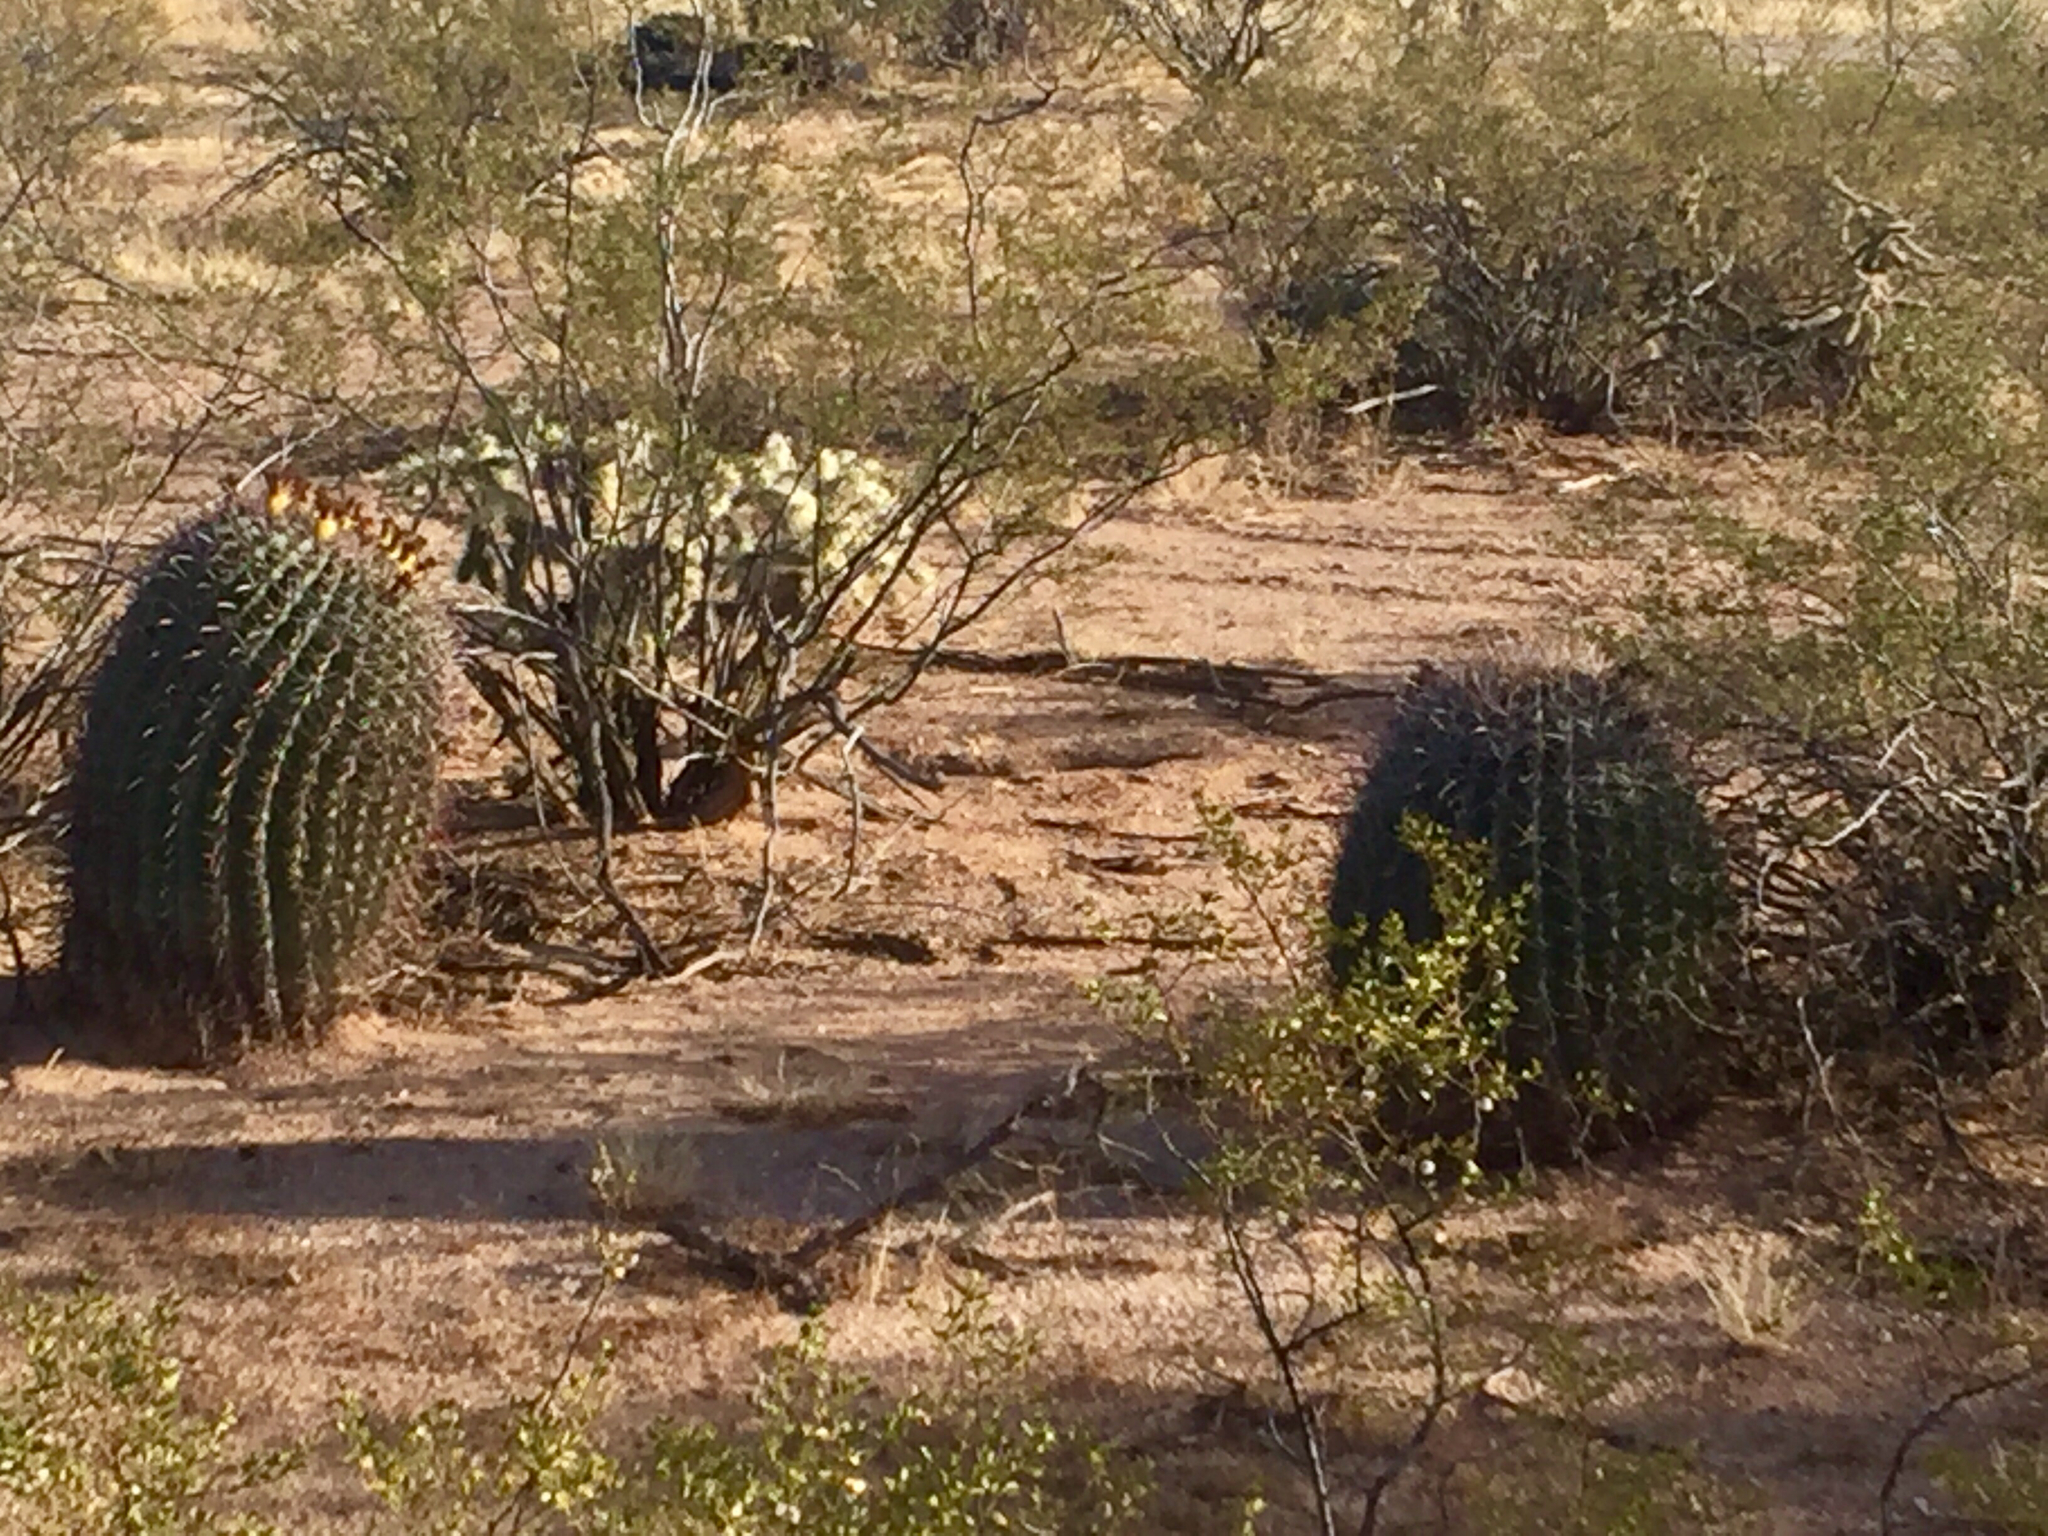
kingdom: Plantae
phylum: Tracheophyta
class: Magnoliopsida
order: Caryophyllales
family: Cactaceae
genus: Ferocactus
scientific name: Ferocactus wislizeni
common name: Candy barrel cactus
